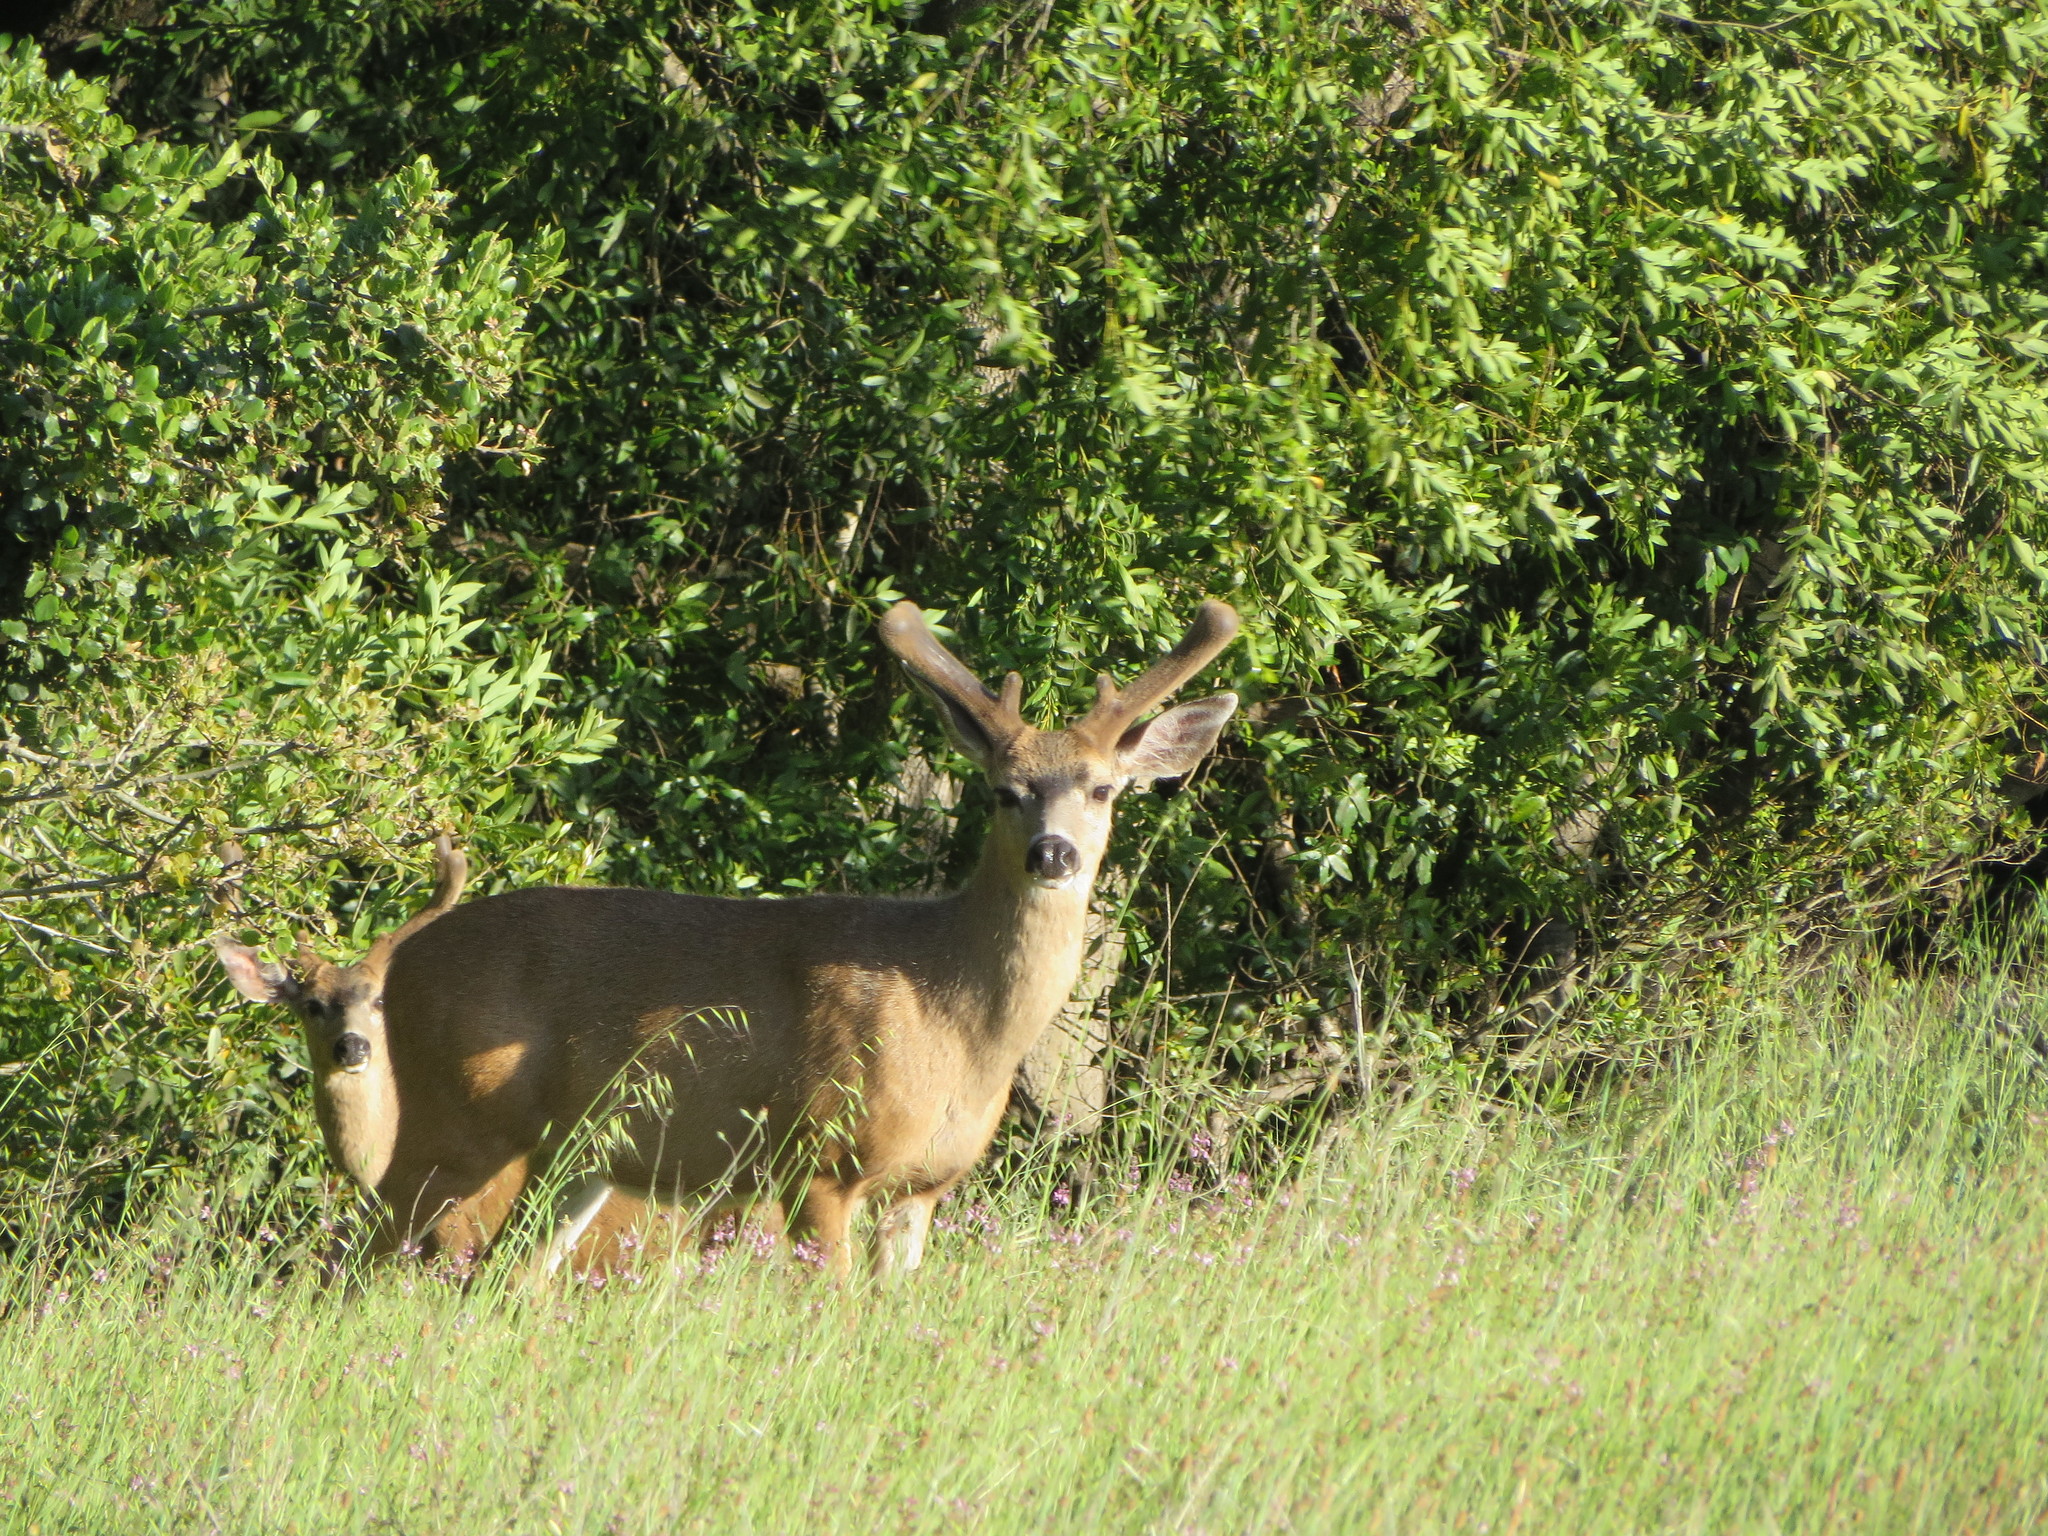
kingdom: Animalia
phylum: Chordata
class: Mammalia
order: Artiodactyla
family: Cervidae
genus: Odocoileus
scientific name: Odocoileus hemionus
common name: Mule deer
